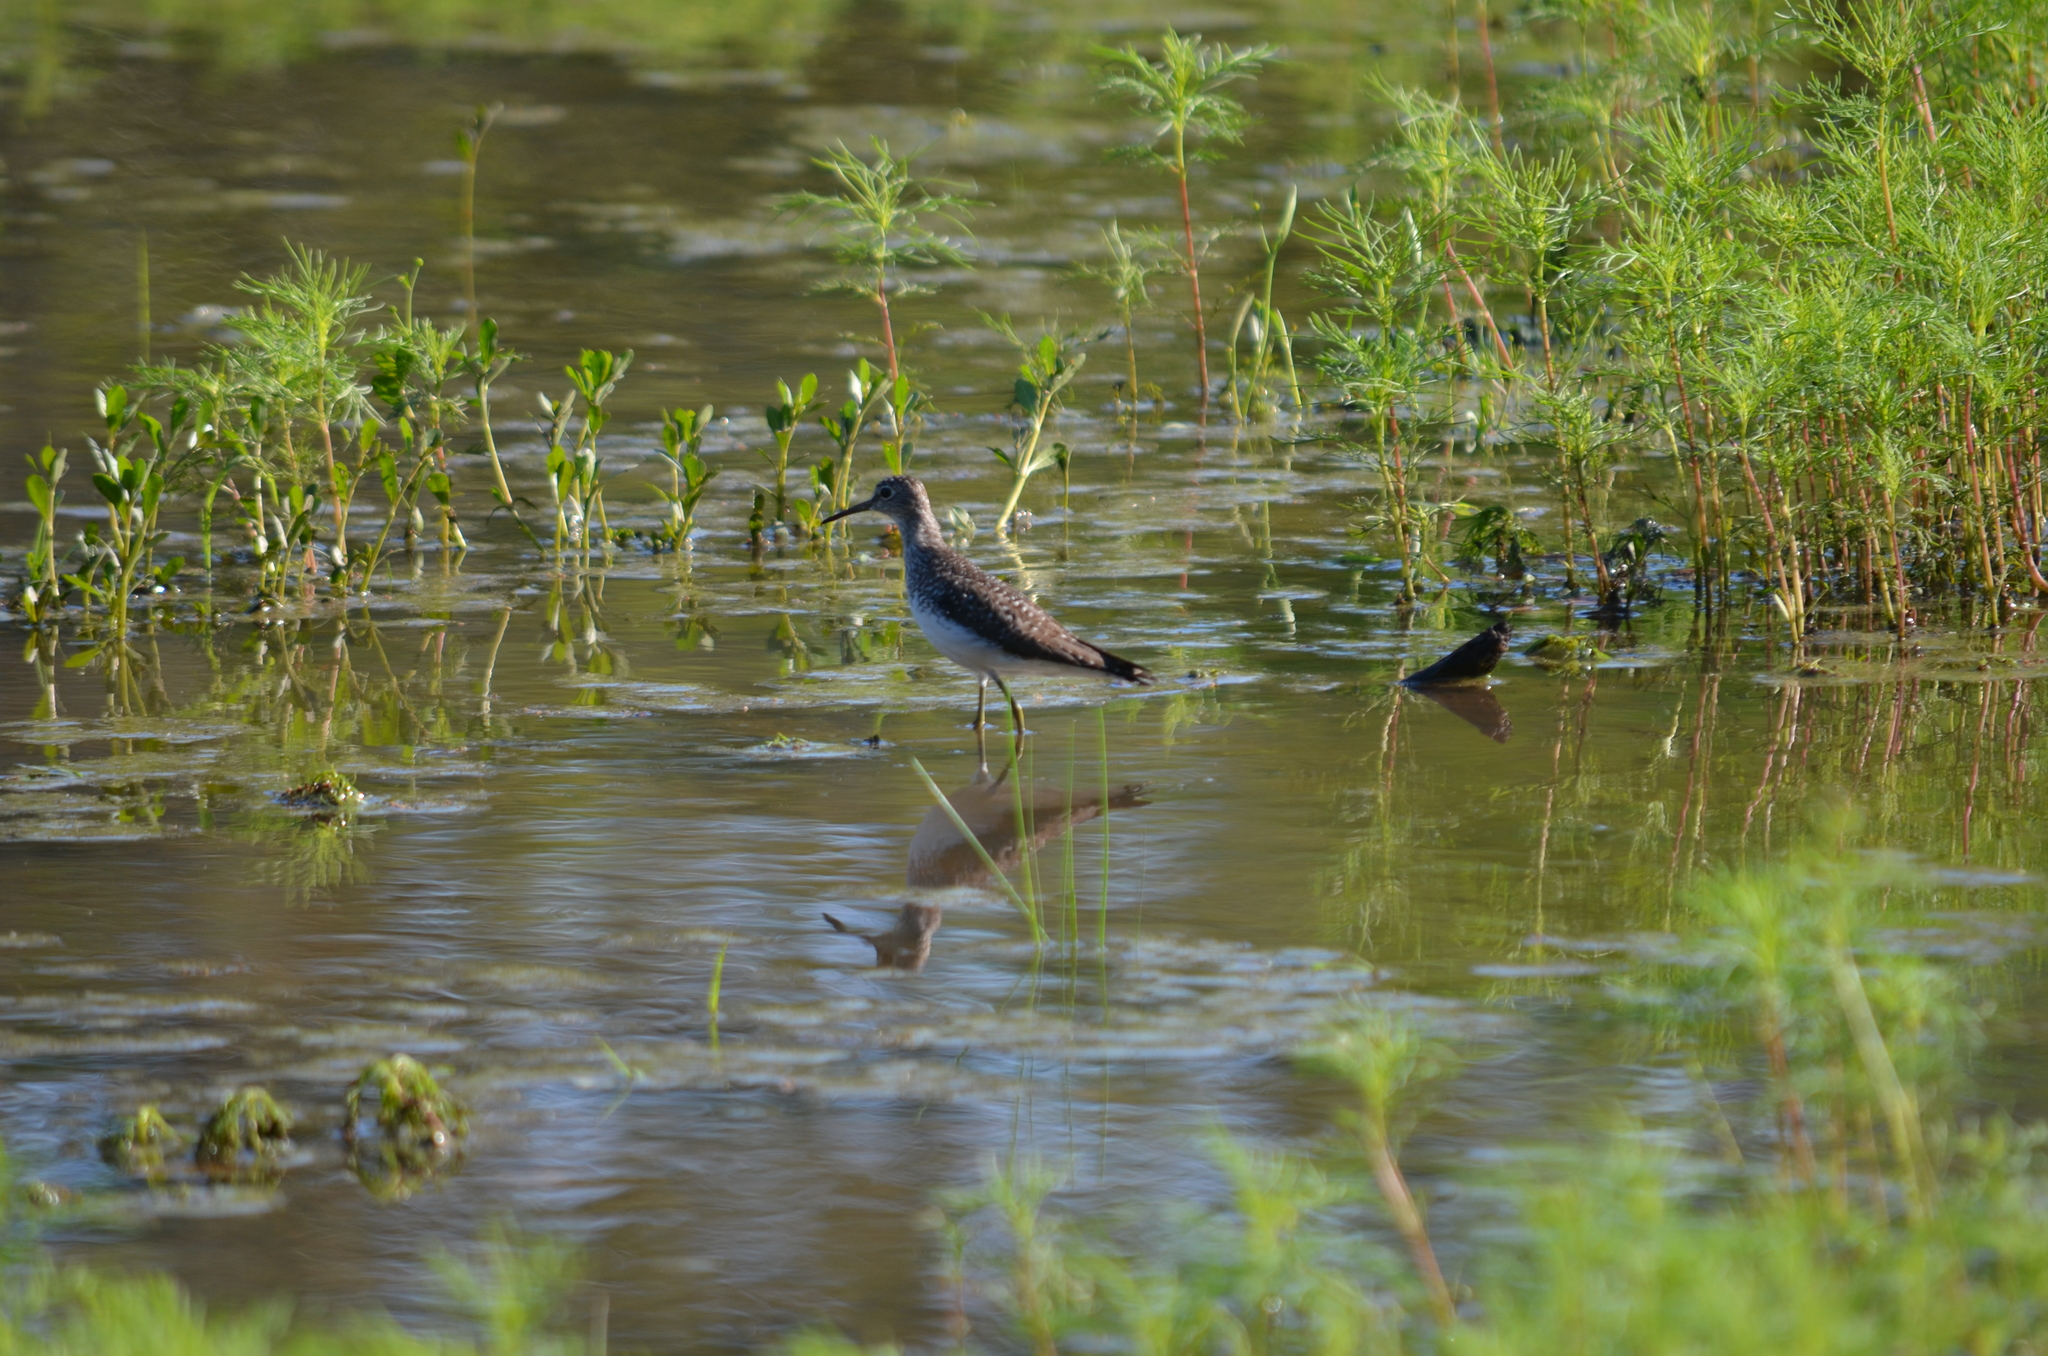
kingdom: Animalia
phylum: Chordata
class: Aves
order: Charadriiformes
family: Scolopacidae
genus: Tringa
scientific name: Tringa solitaria
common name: Solitary sandpiper
